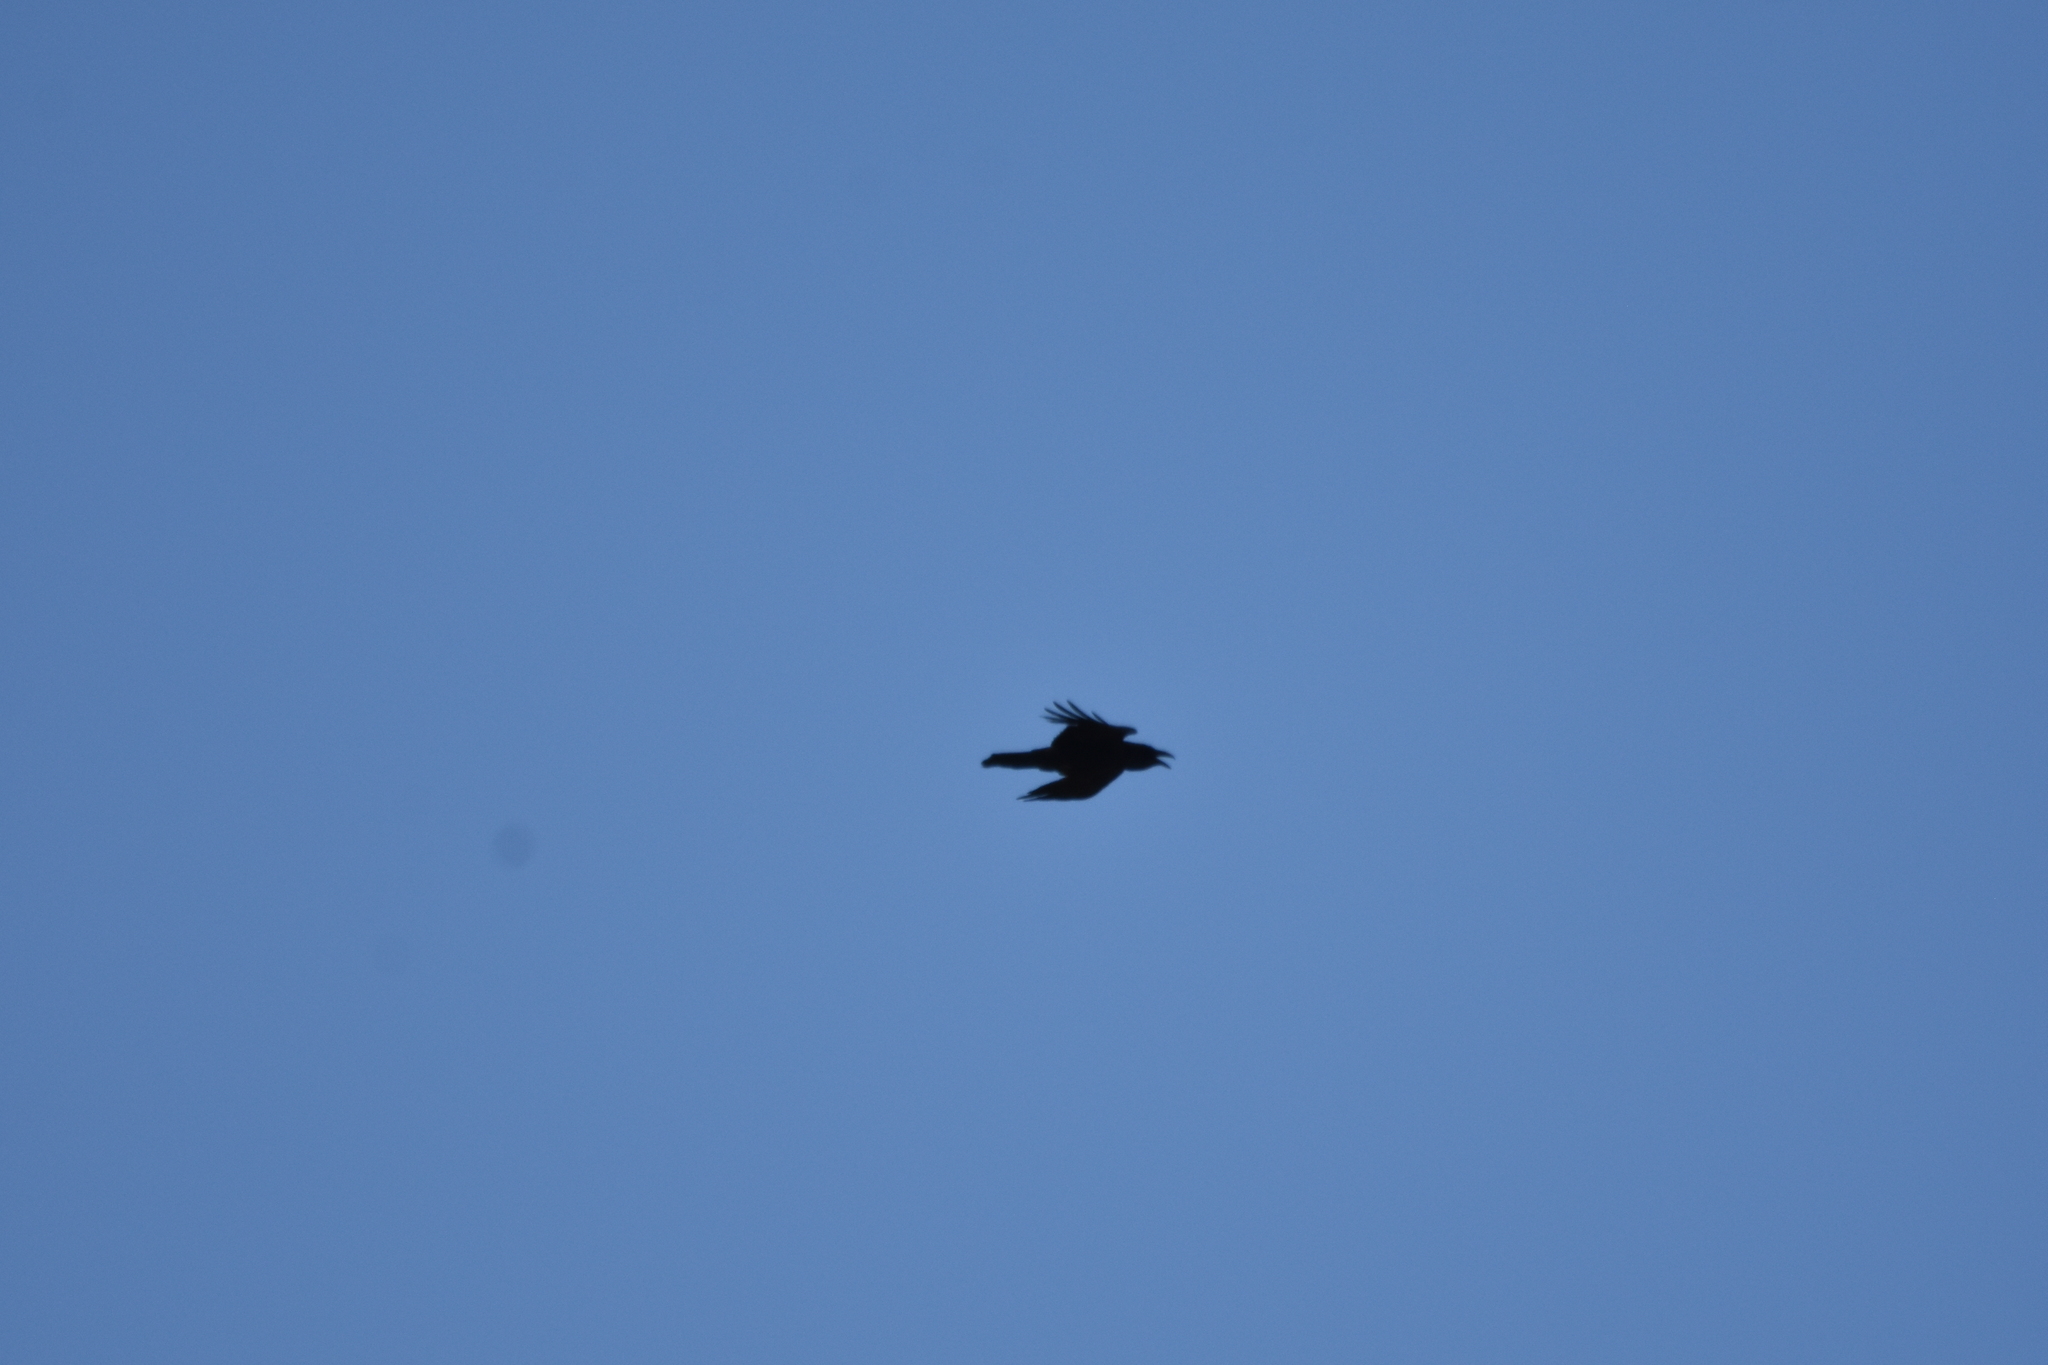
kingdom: Animalia
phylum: Chordata
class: Aves
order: Passeriformes
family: Corvidae
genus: Corvus
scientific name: Corvus corax
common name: Common raven
